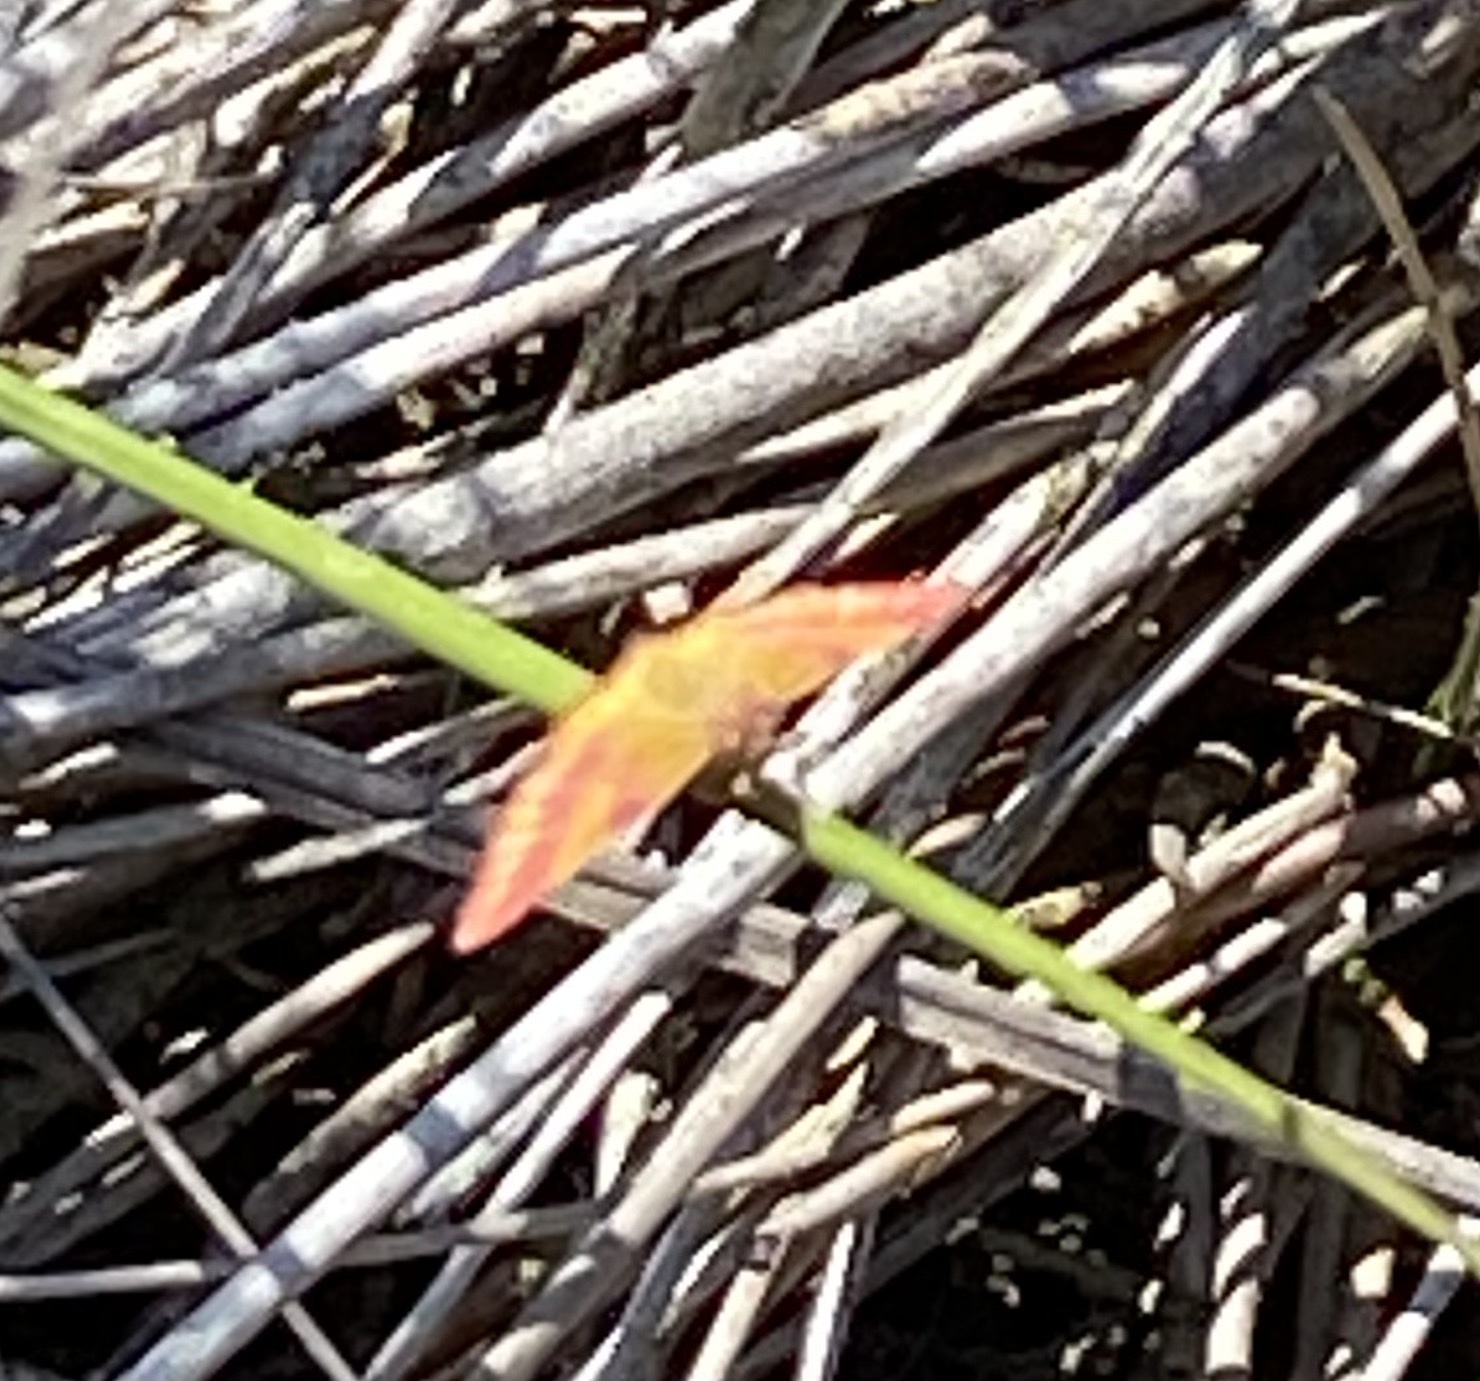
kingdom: Animalia
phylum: Arthropoda
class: Insecta
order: Lepidoptera
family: Geometridae
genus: Lythria
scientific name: Lythria cruentaria
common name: Purple-barred yellow
